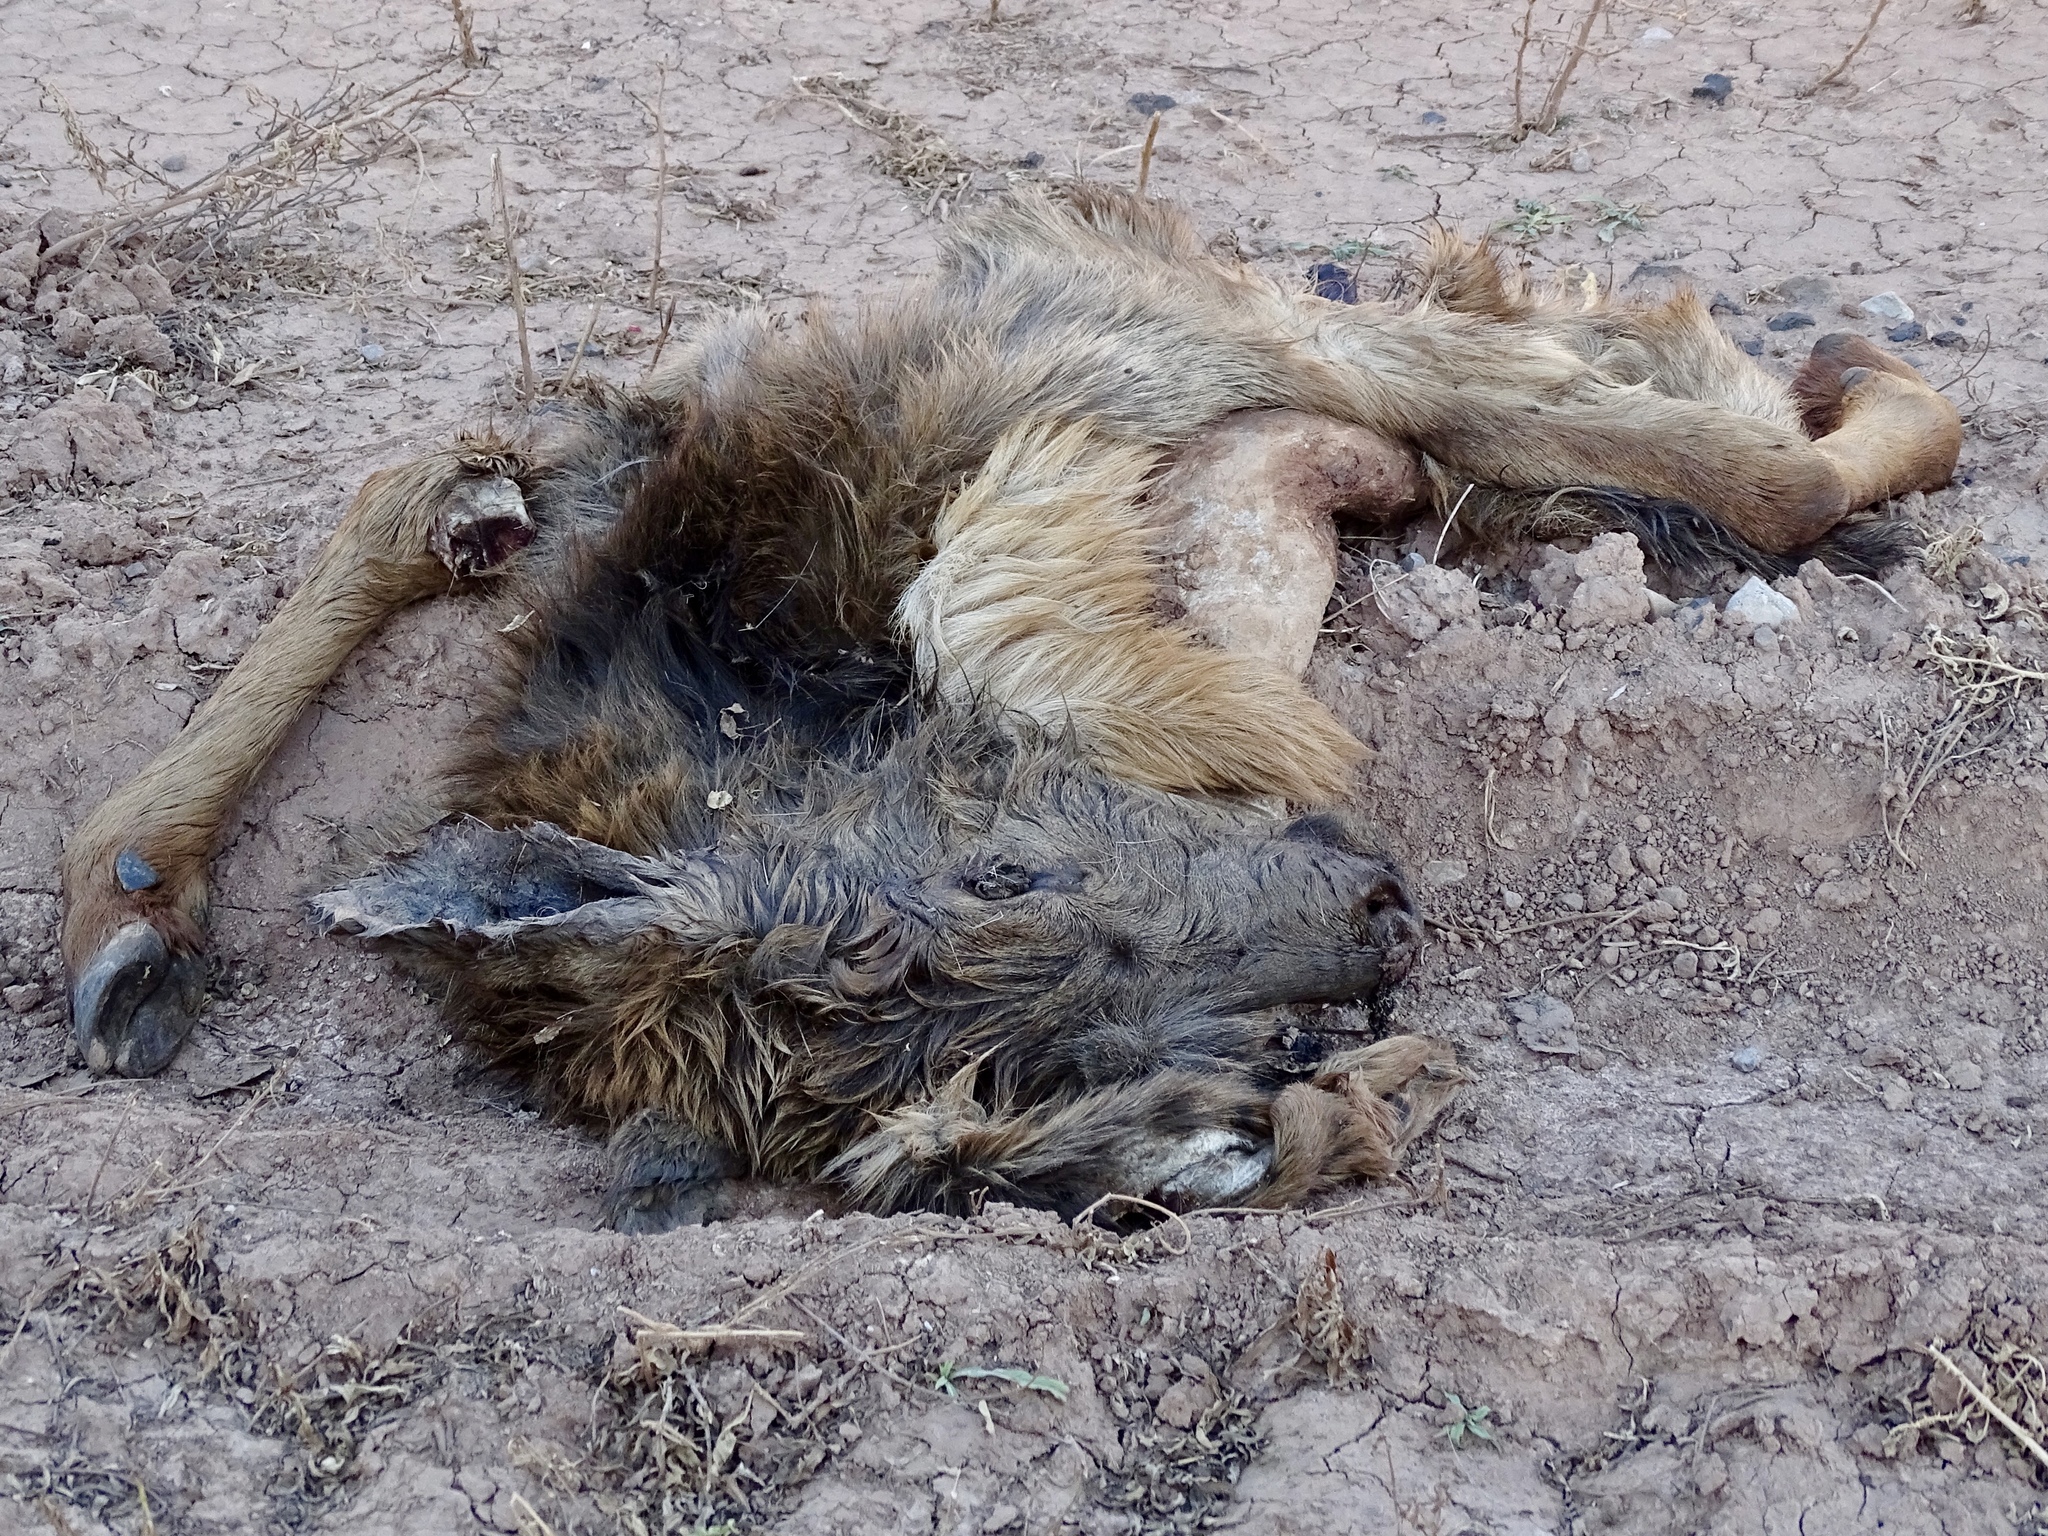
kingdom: Animalia
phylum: Chordata
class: Mammalia
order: Artiodactyla
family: Cervidae
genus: Cervus
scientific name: Cervus elaphus
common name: Red deer
